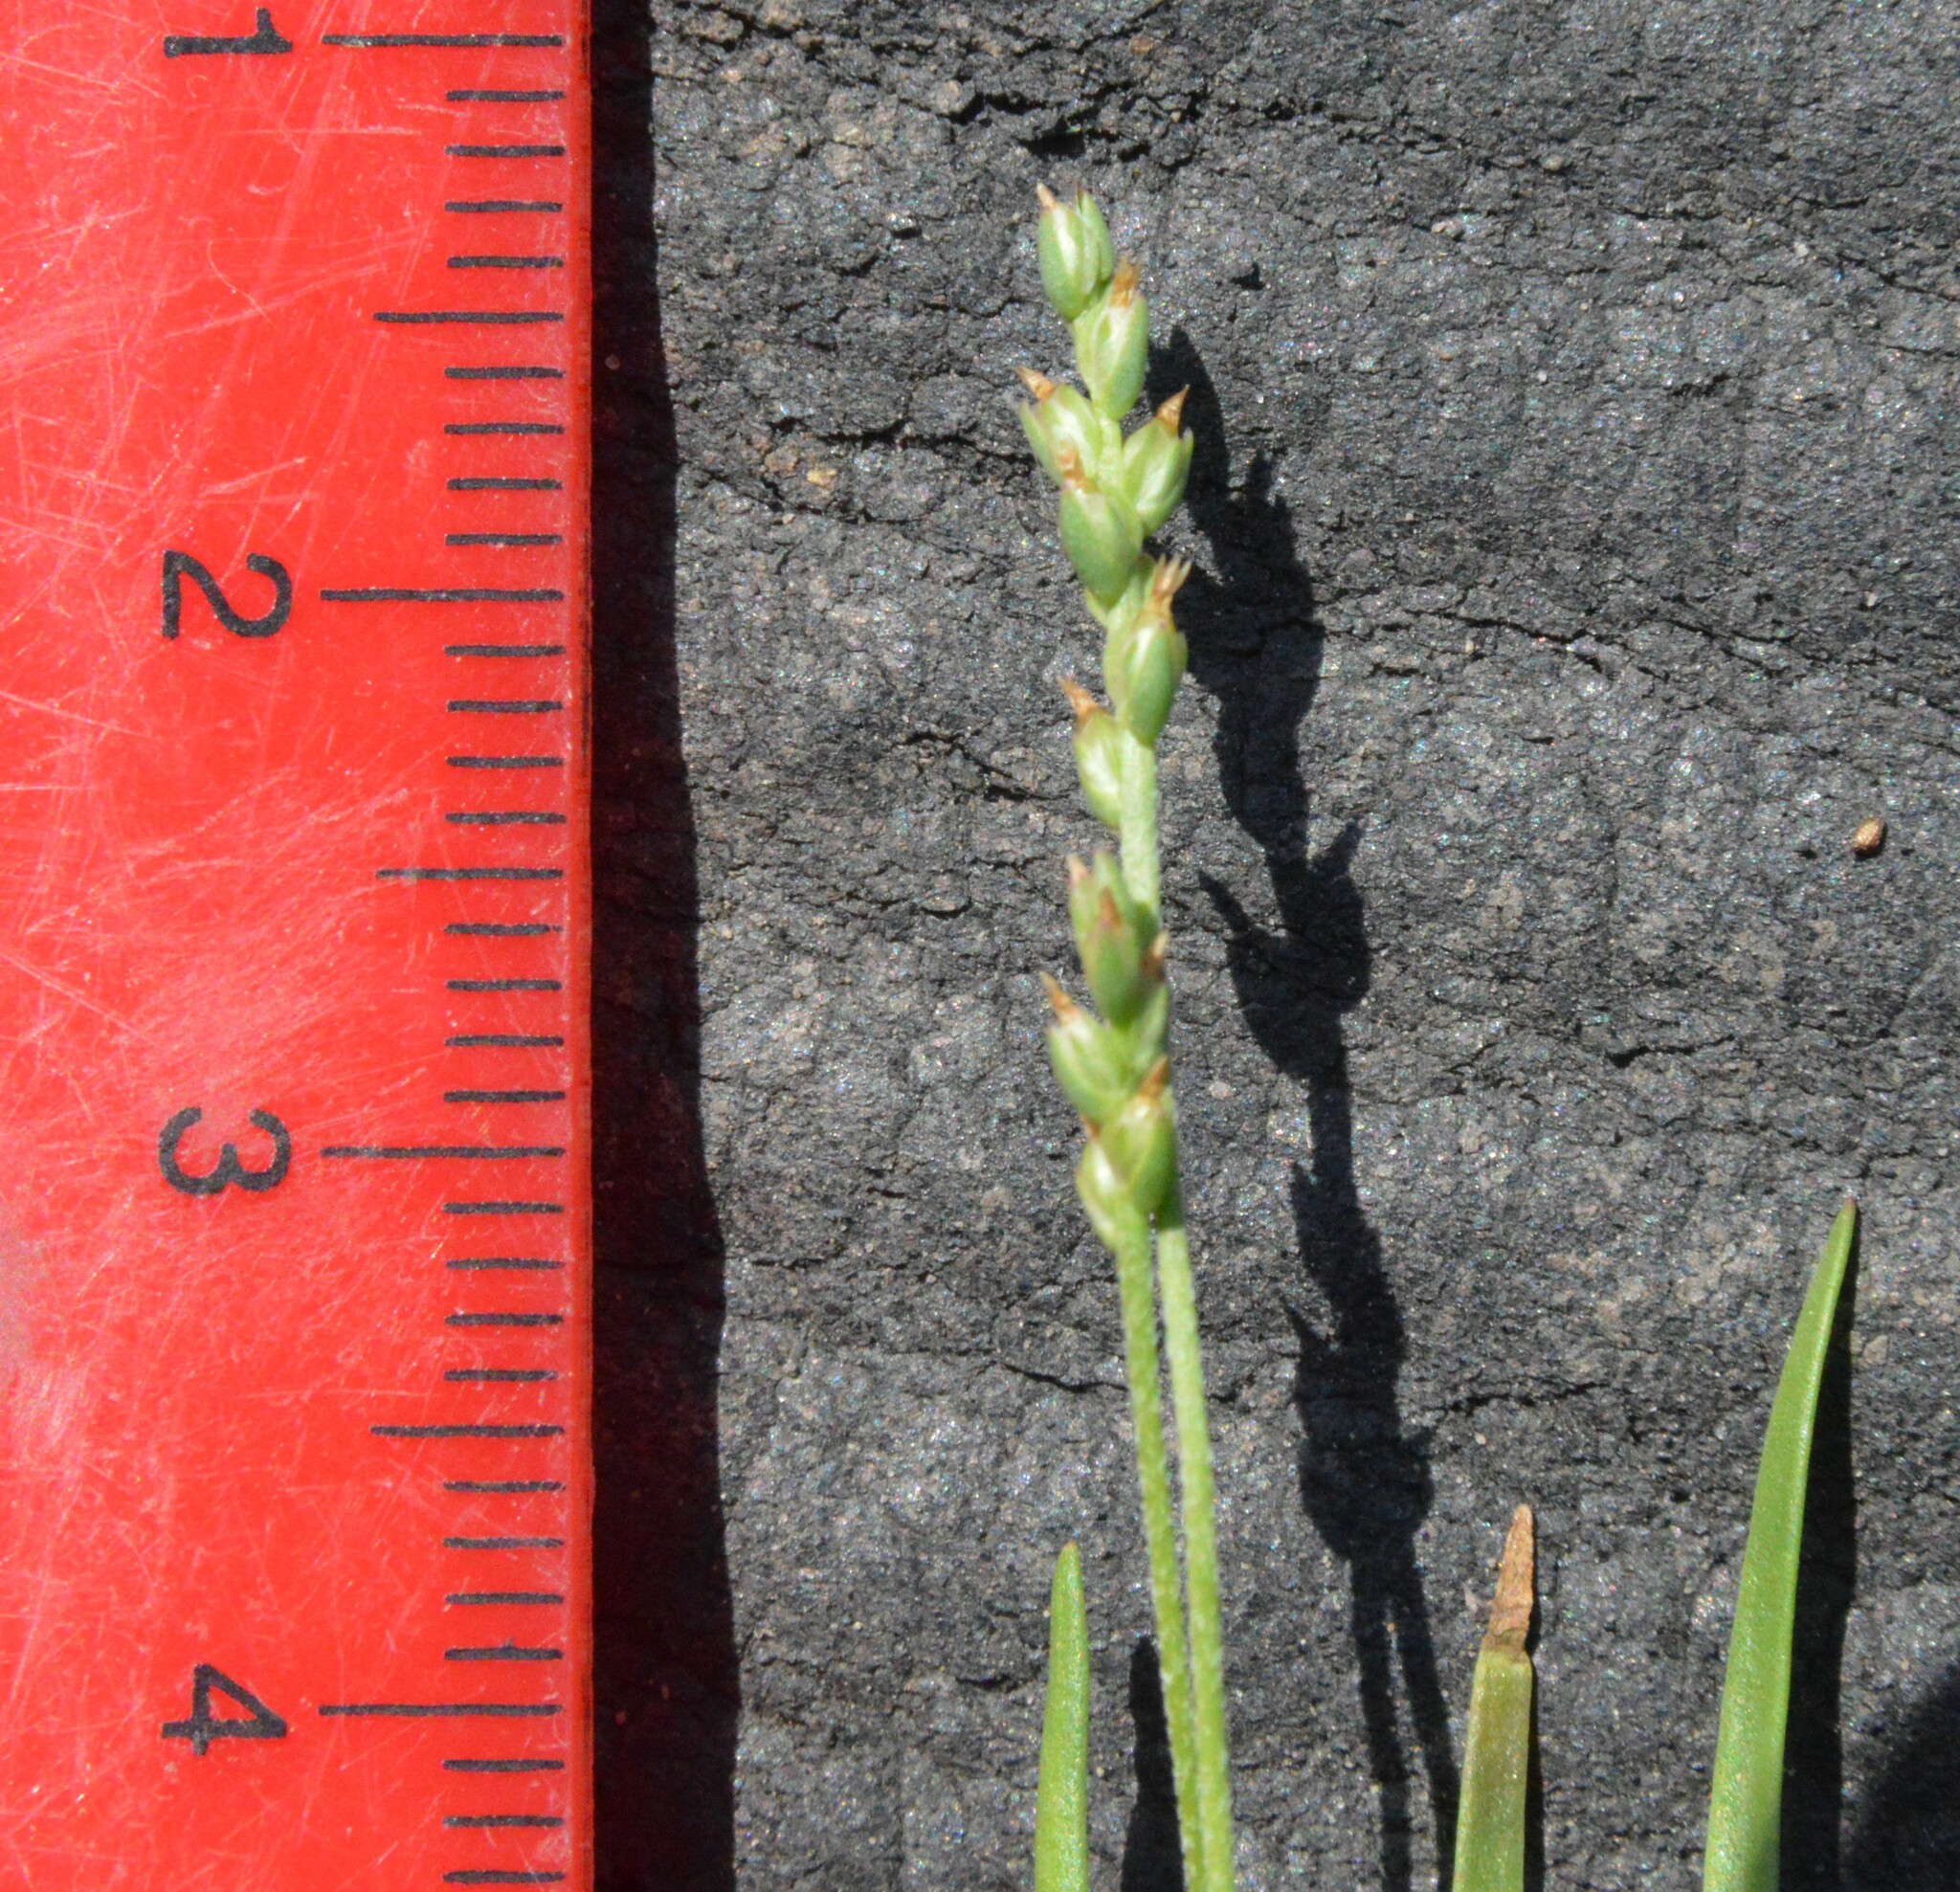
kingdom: Plantae
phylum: Tracheophyta
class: Magnoliopsida
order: Lamiales
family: Plantaginaceae
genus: Plantago
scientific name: Plantago heterophylla
